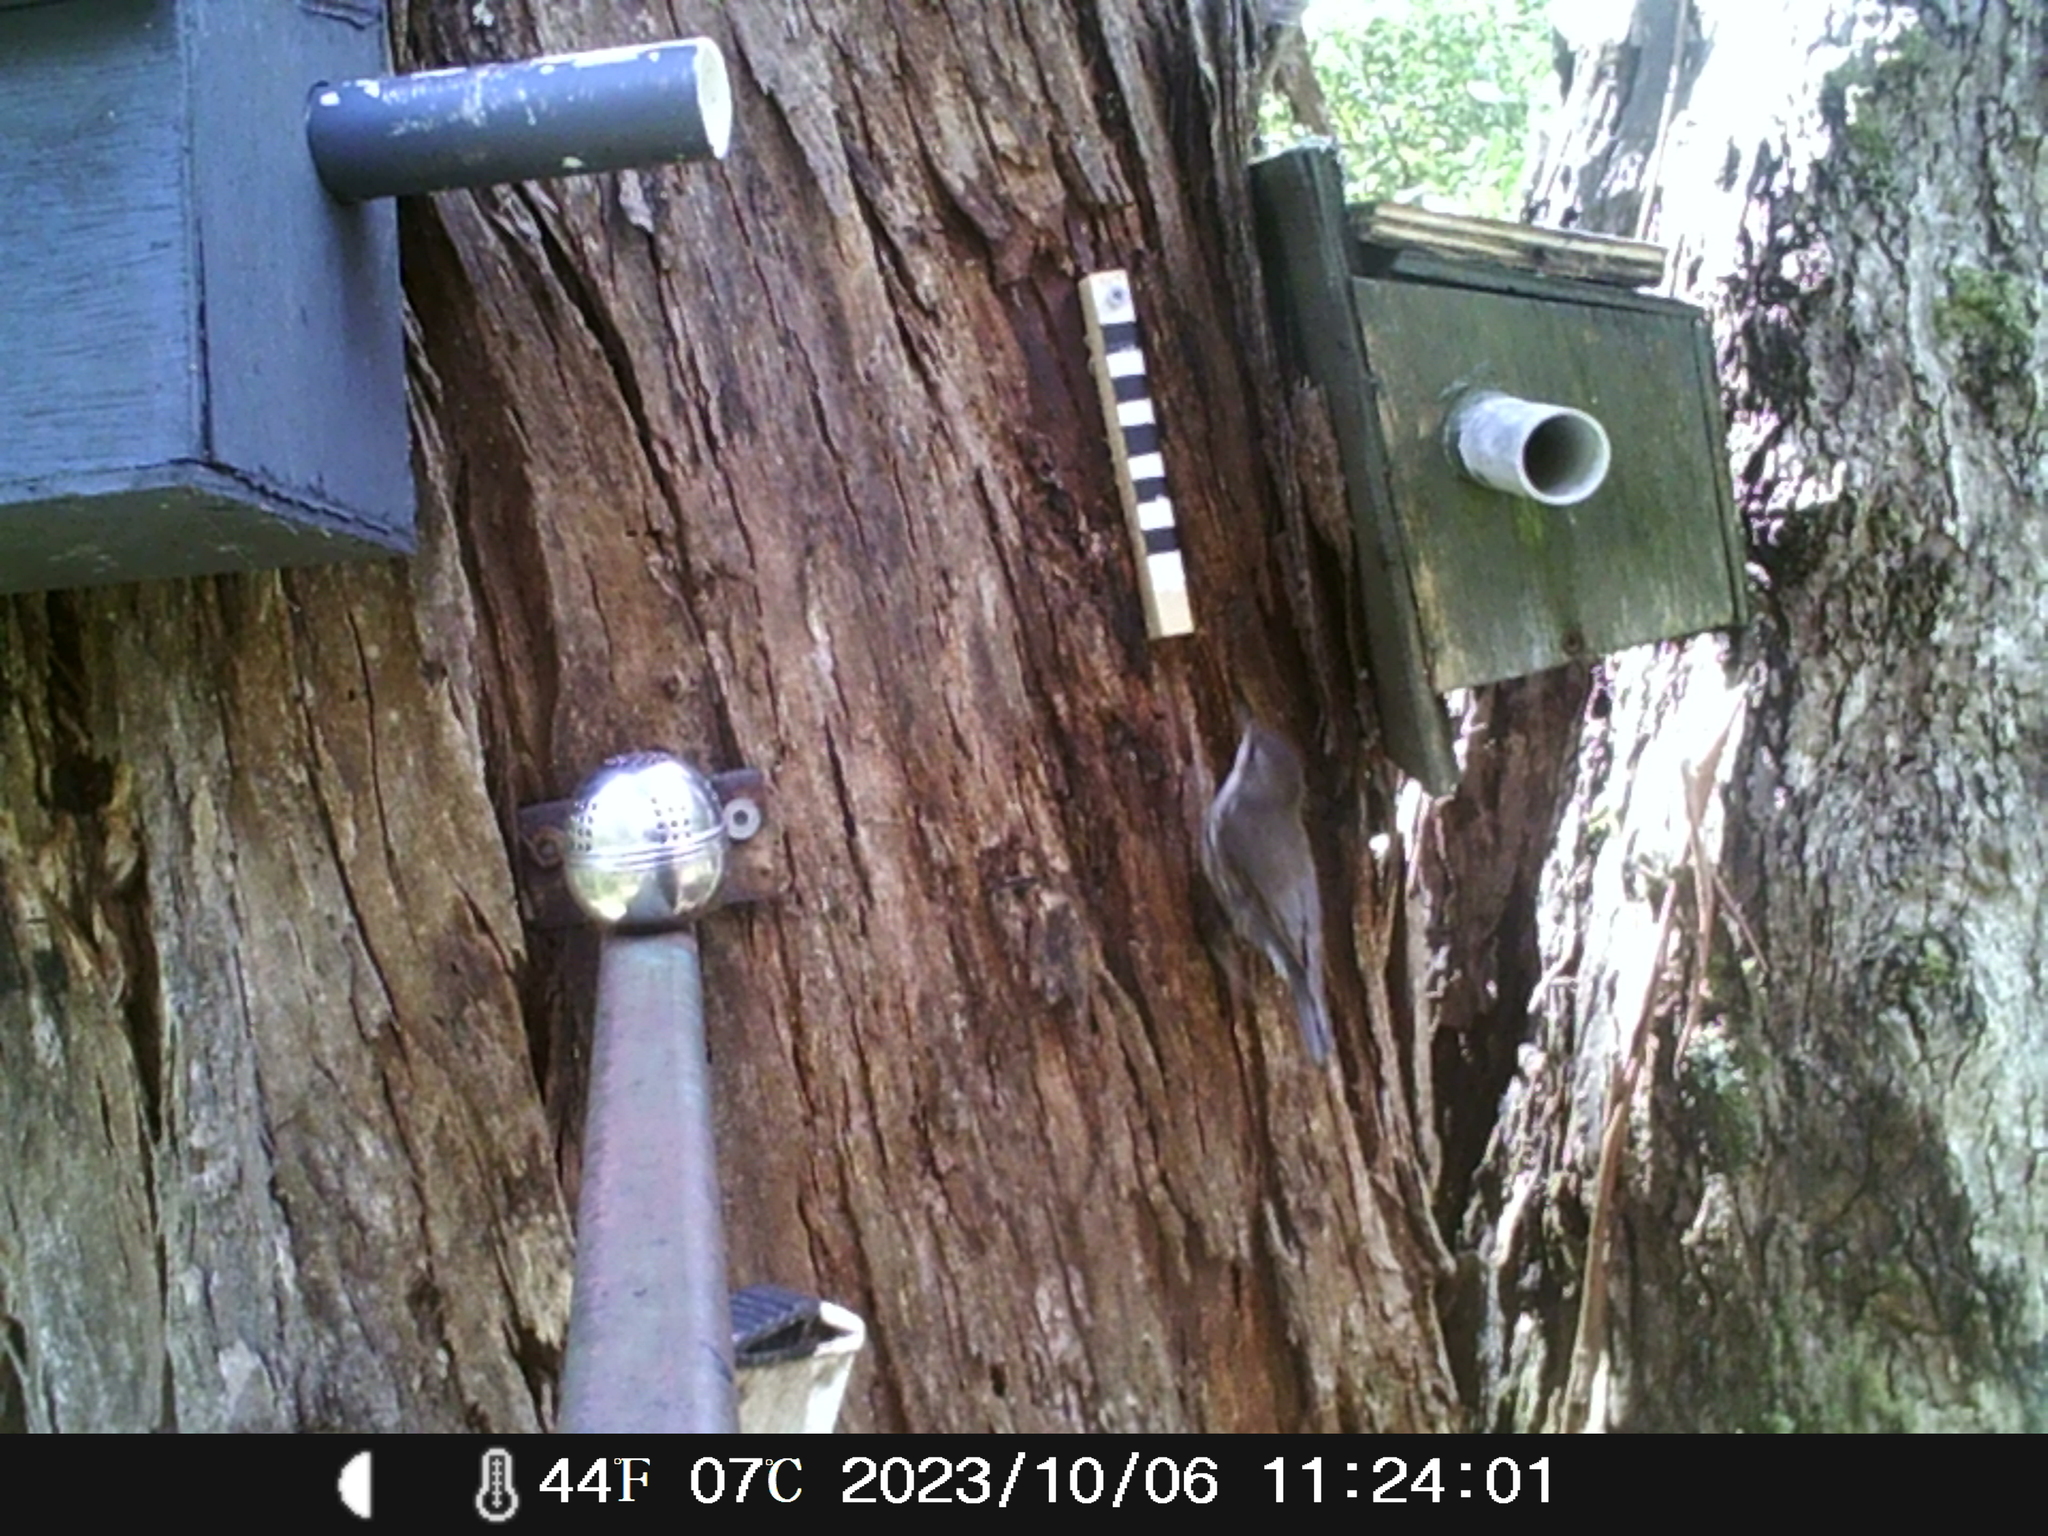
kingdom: Animalia
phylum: Chordata
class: Aves
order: Passeriformes
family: Climacteridae
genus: Cormobates
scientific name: Cormobates leucophaea
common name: White-throated treecreeper
